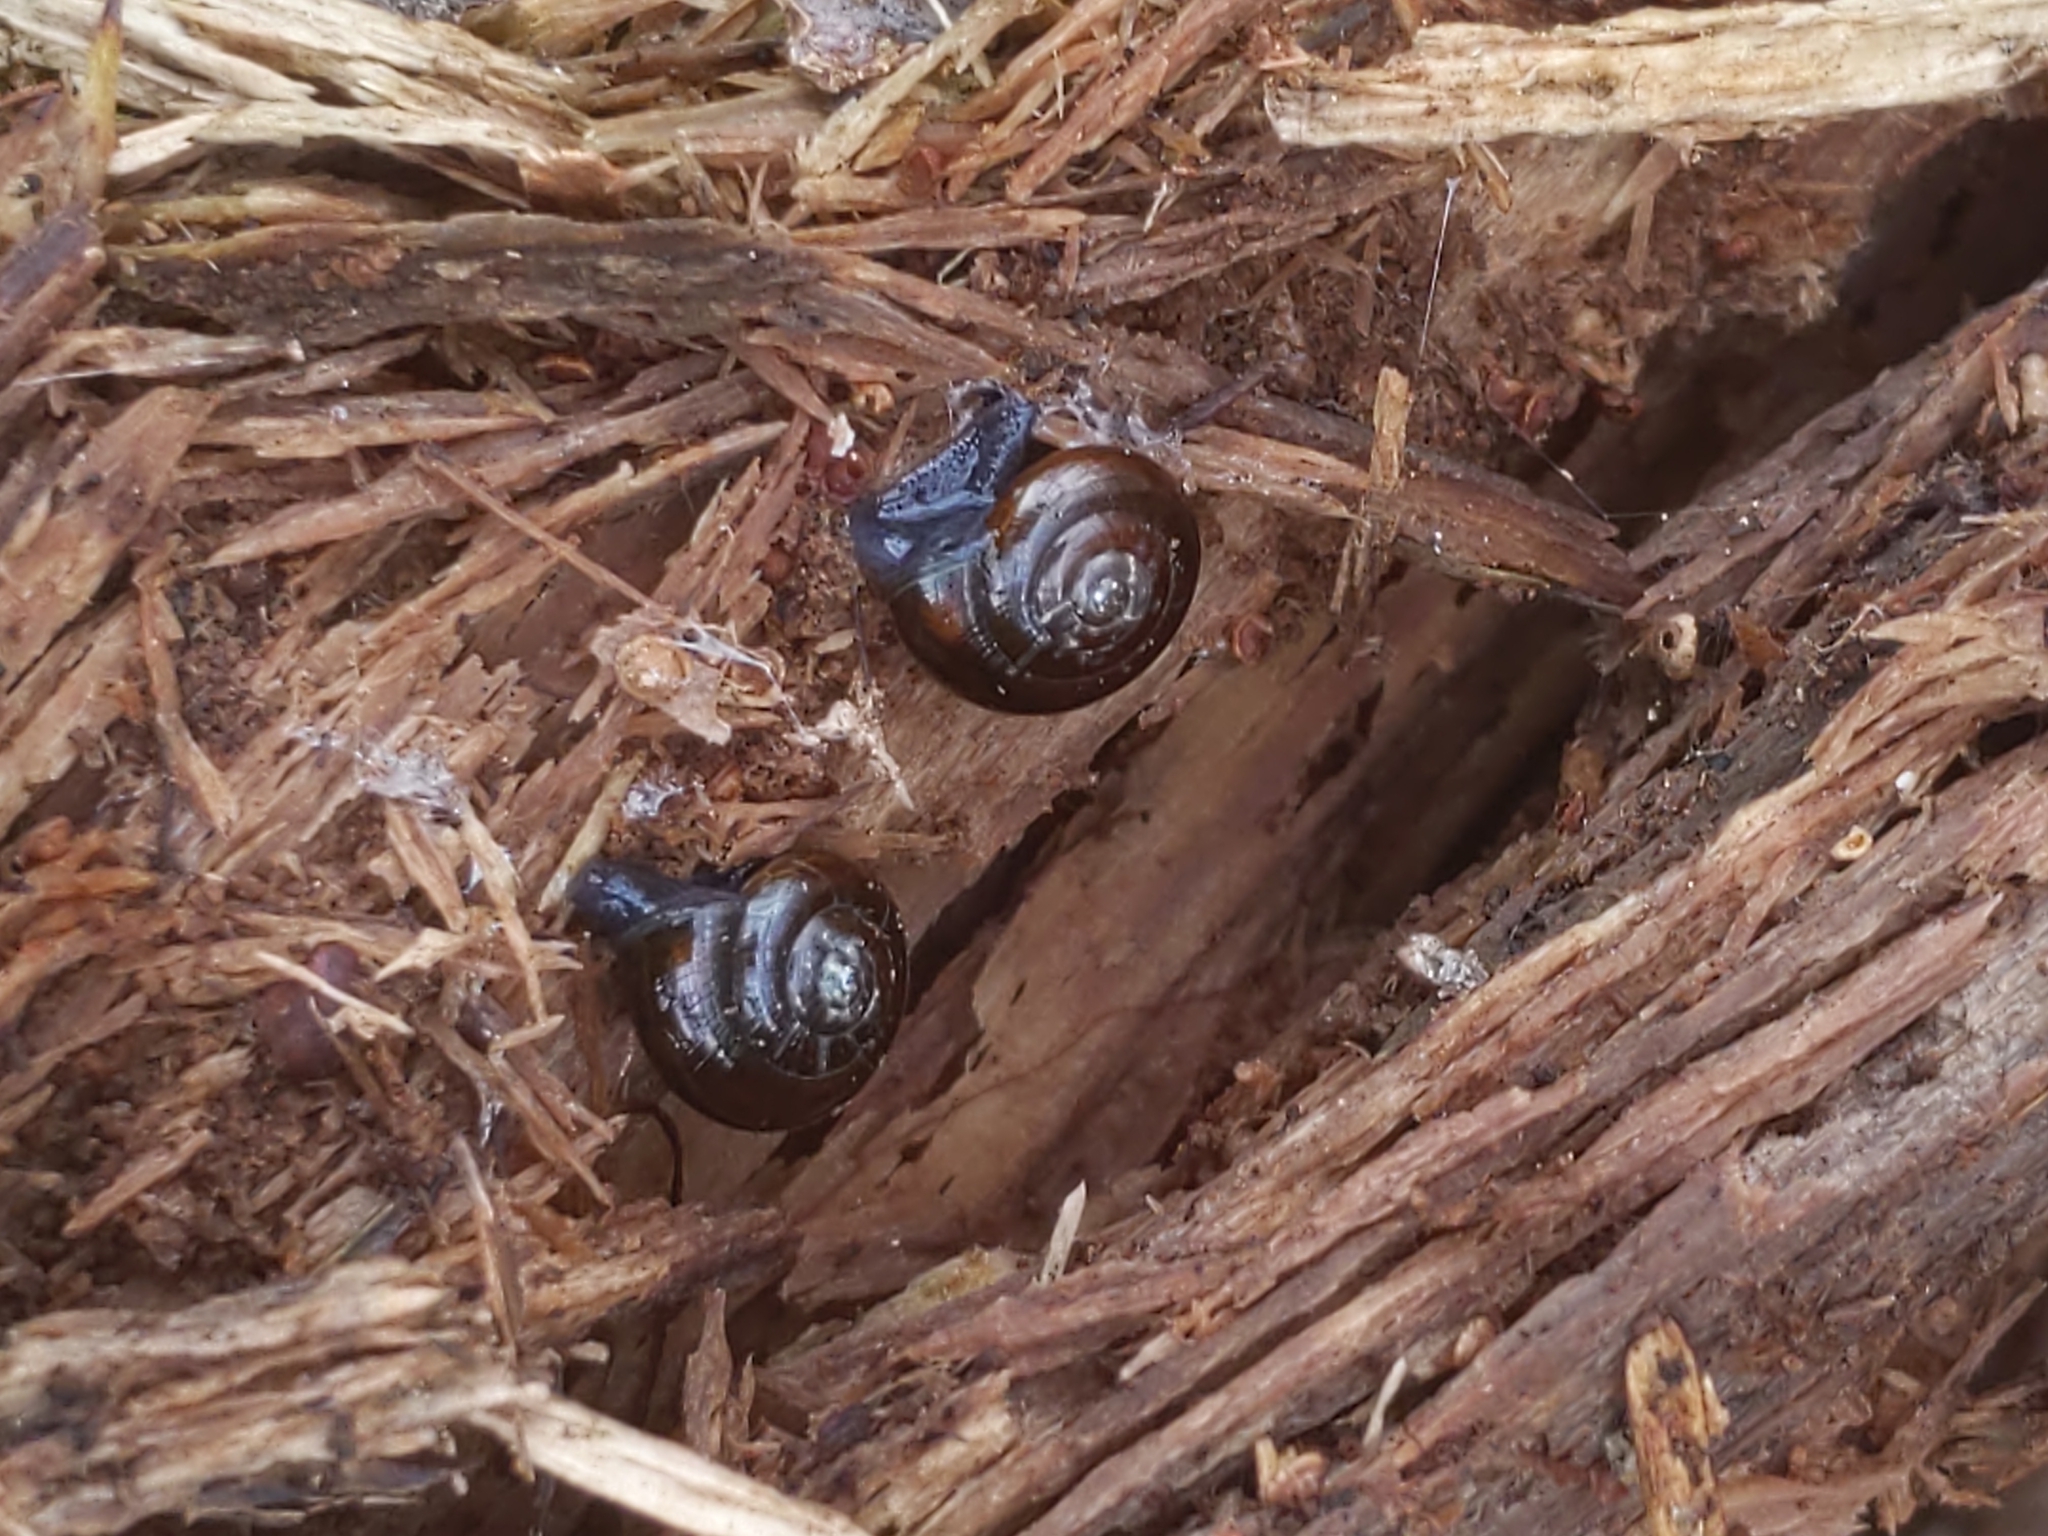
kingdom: Animalia
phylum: Mollusca
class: Gastropoda
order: Stylommatophora
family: Gastrodontidae
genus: Zonitoides
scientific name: Zonitoides arboreus
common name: Quick gloss
